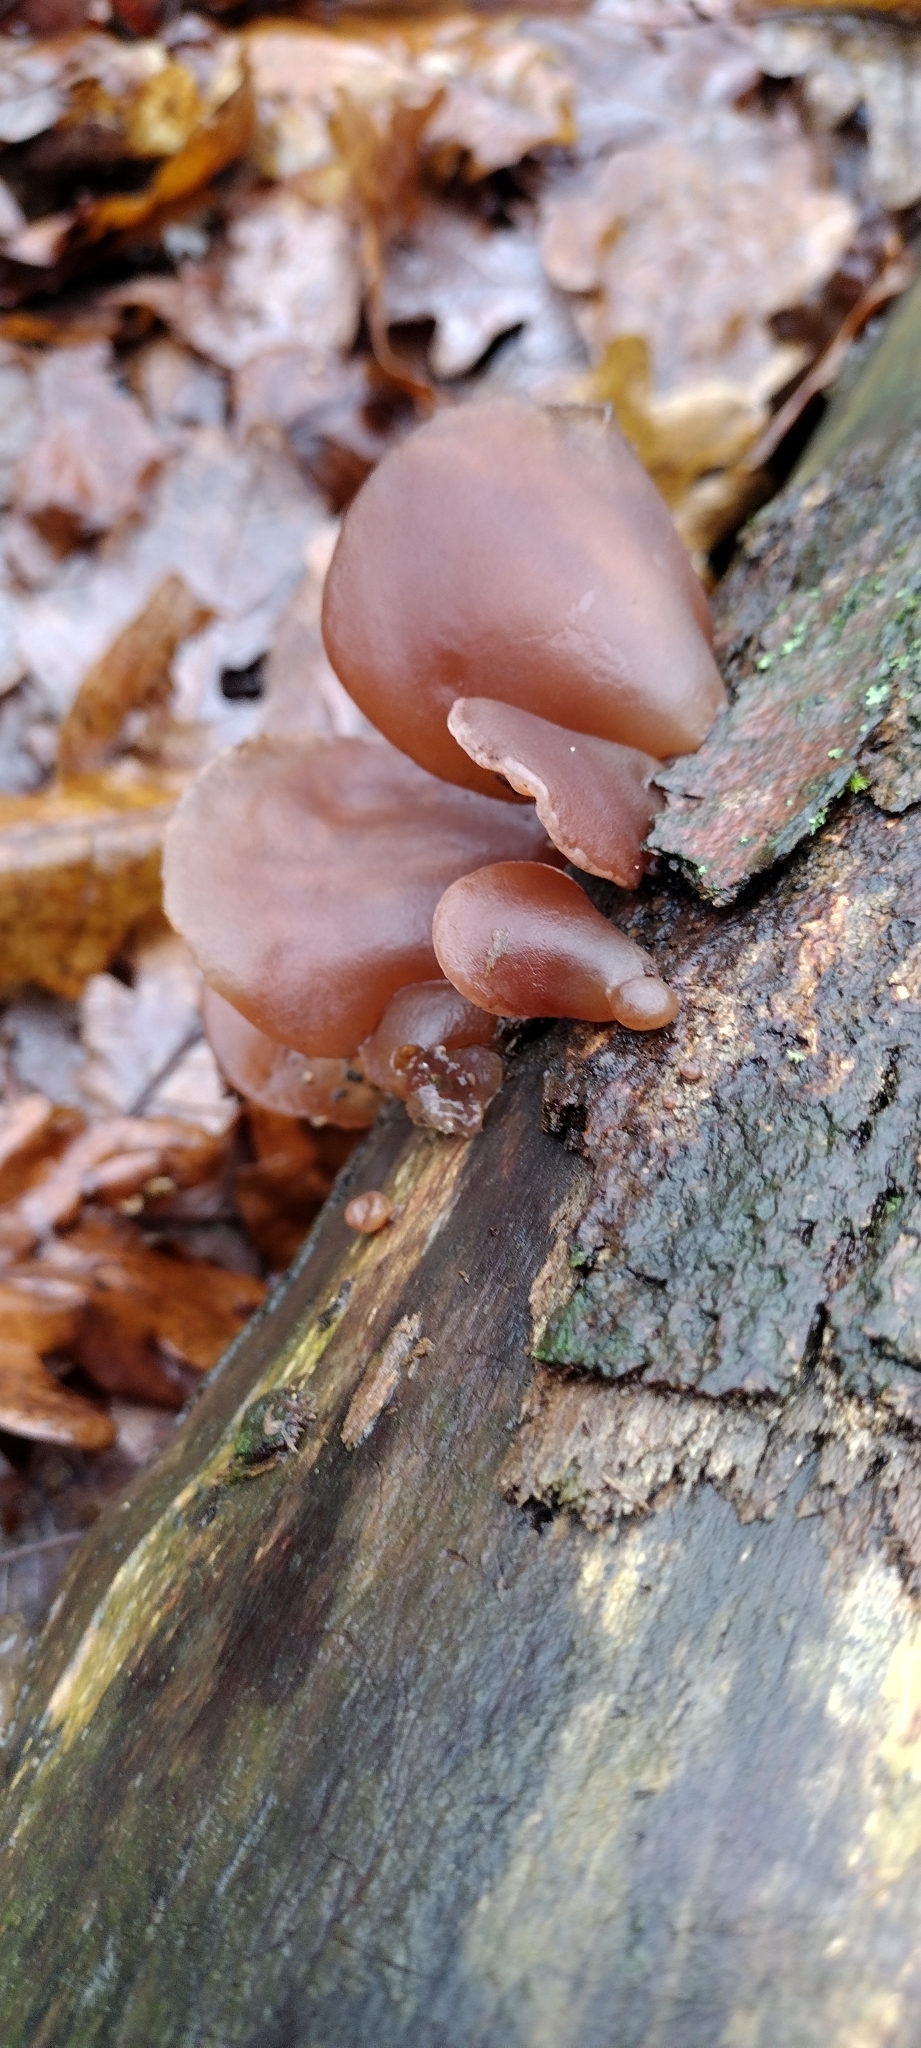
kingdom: Fungi
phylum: Basidiomycota
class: Agaricomycetes
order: Auriculariales
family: Auriculariaceae
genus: Auricularia
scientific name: Auricularia auricula-judae
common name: Jelly ear
